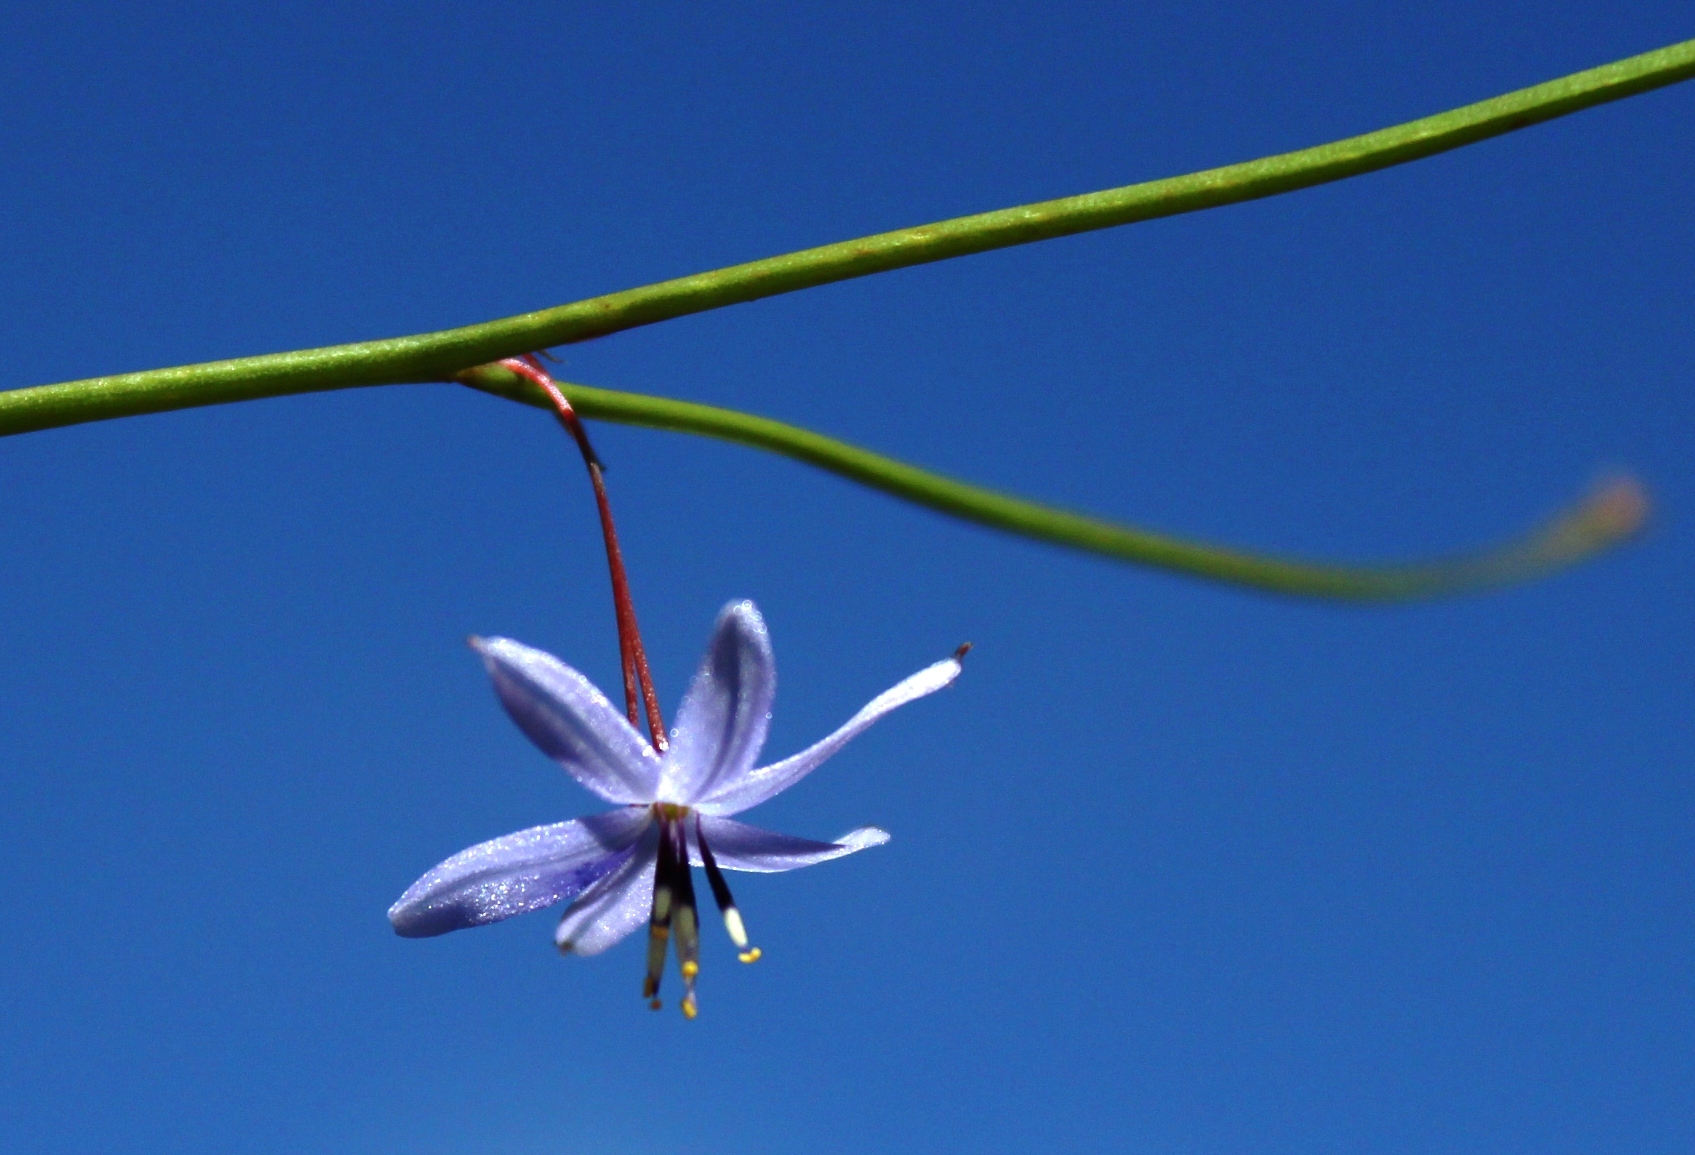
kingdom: Plantae
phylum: Tracheophyta
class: Liliopsida
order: Asparagales
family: Asphodelaceae
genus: Caesia
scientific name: Caesia contorta
